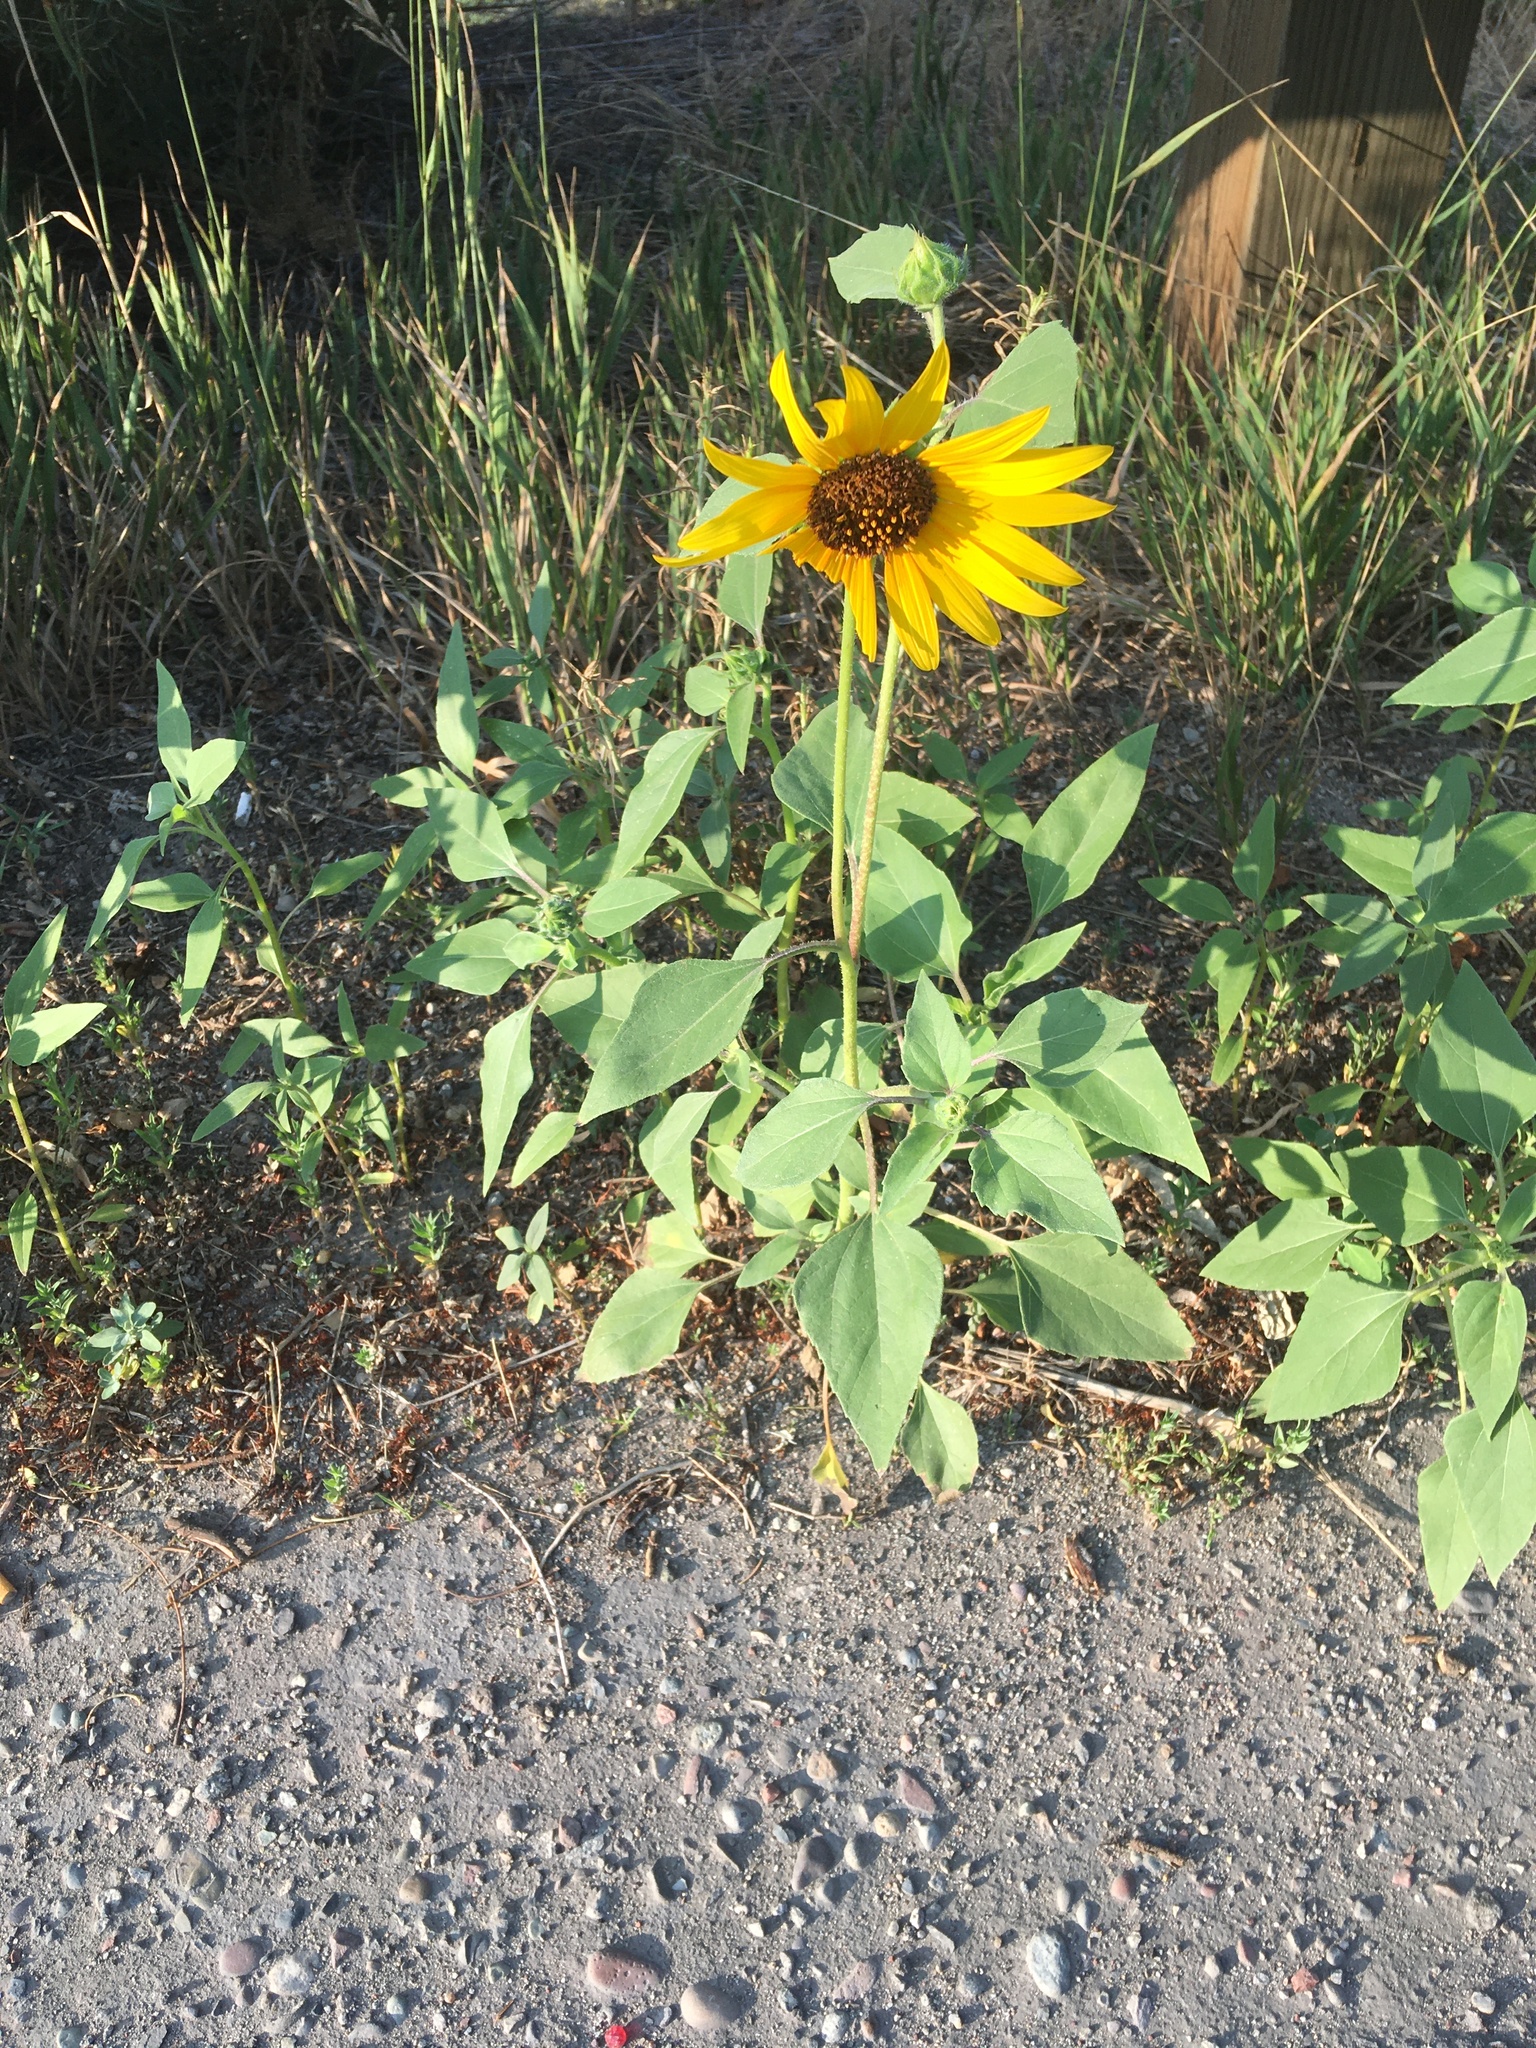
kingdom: Plantae
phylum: Tracheophyta
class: Magnoliopsida
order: Asterales
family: Asteraceae
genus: Helianthus
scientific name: Helianthus annuus
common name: Sunflower
